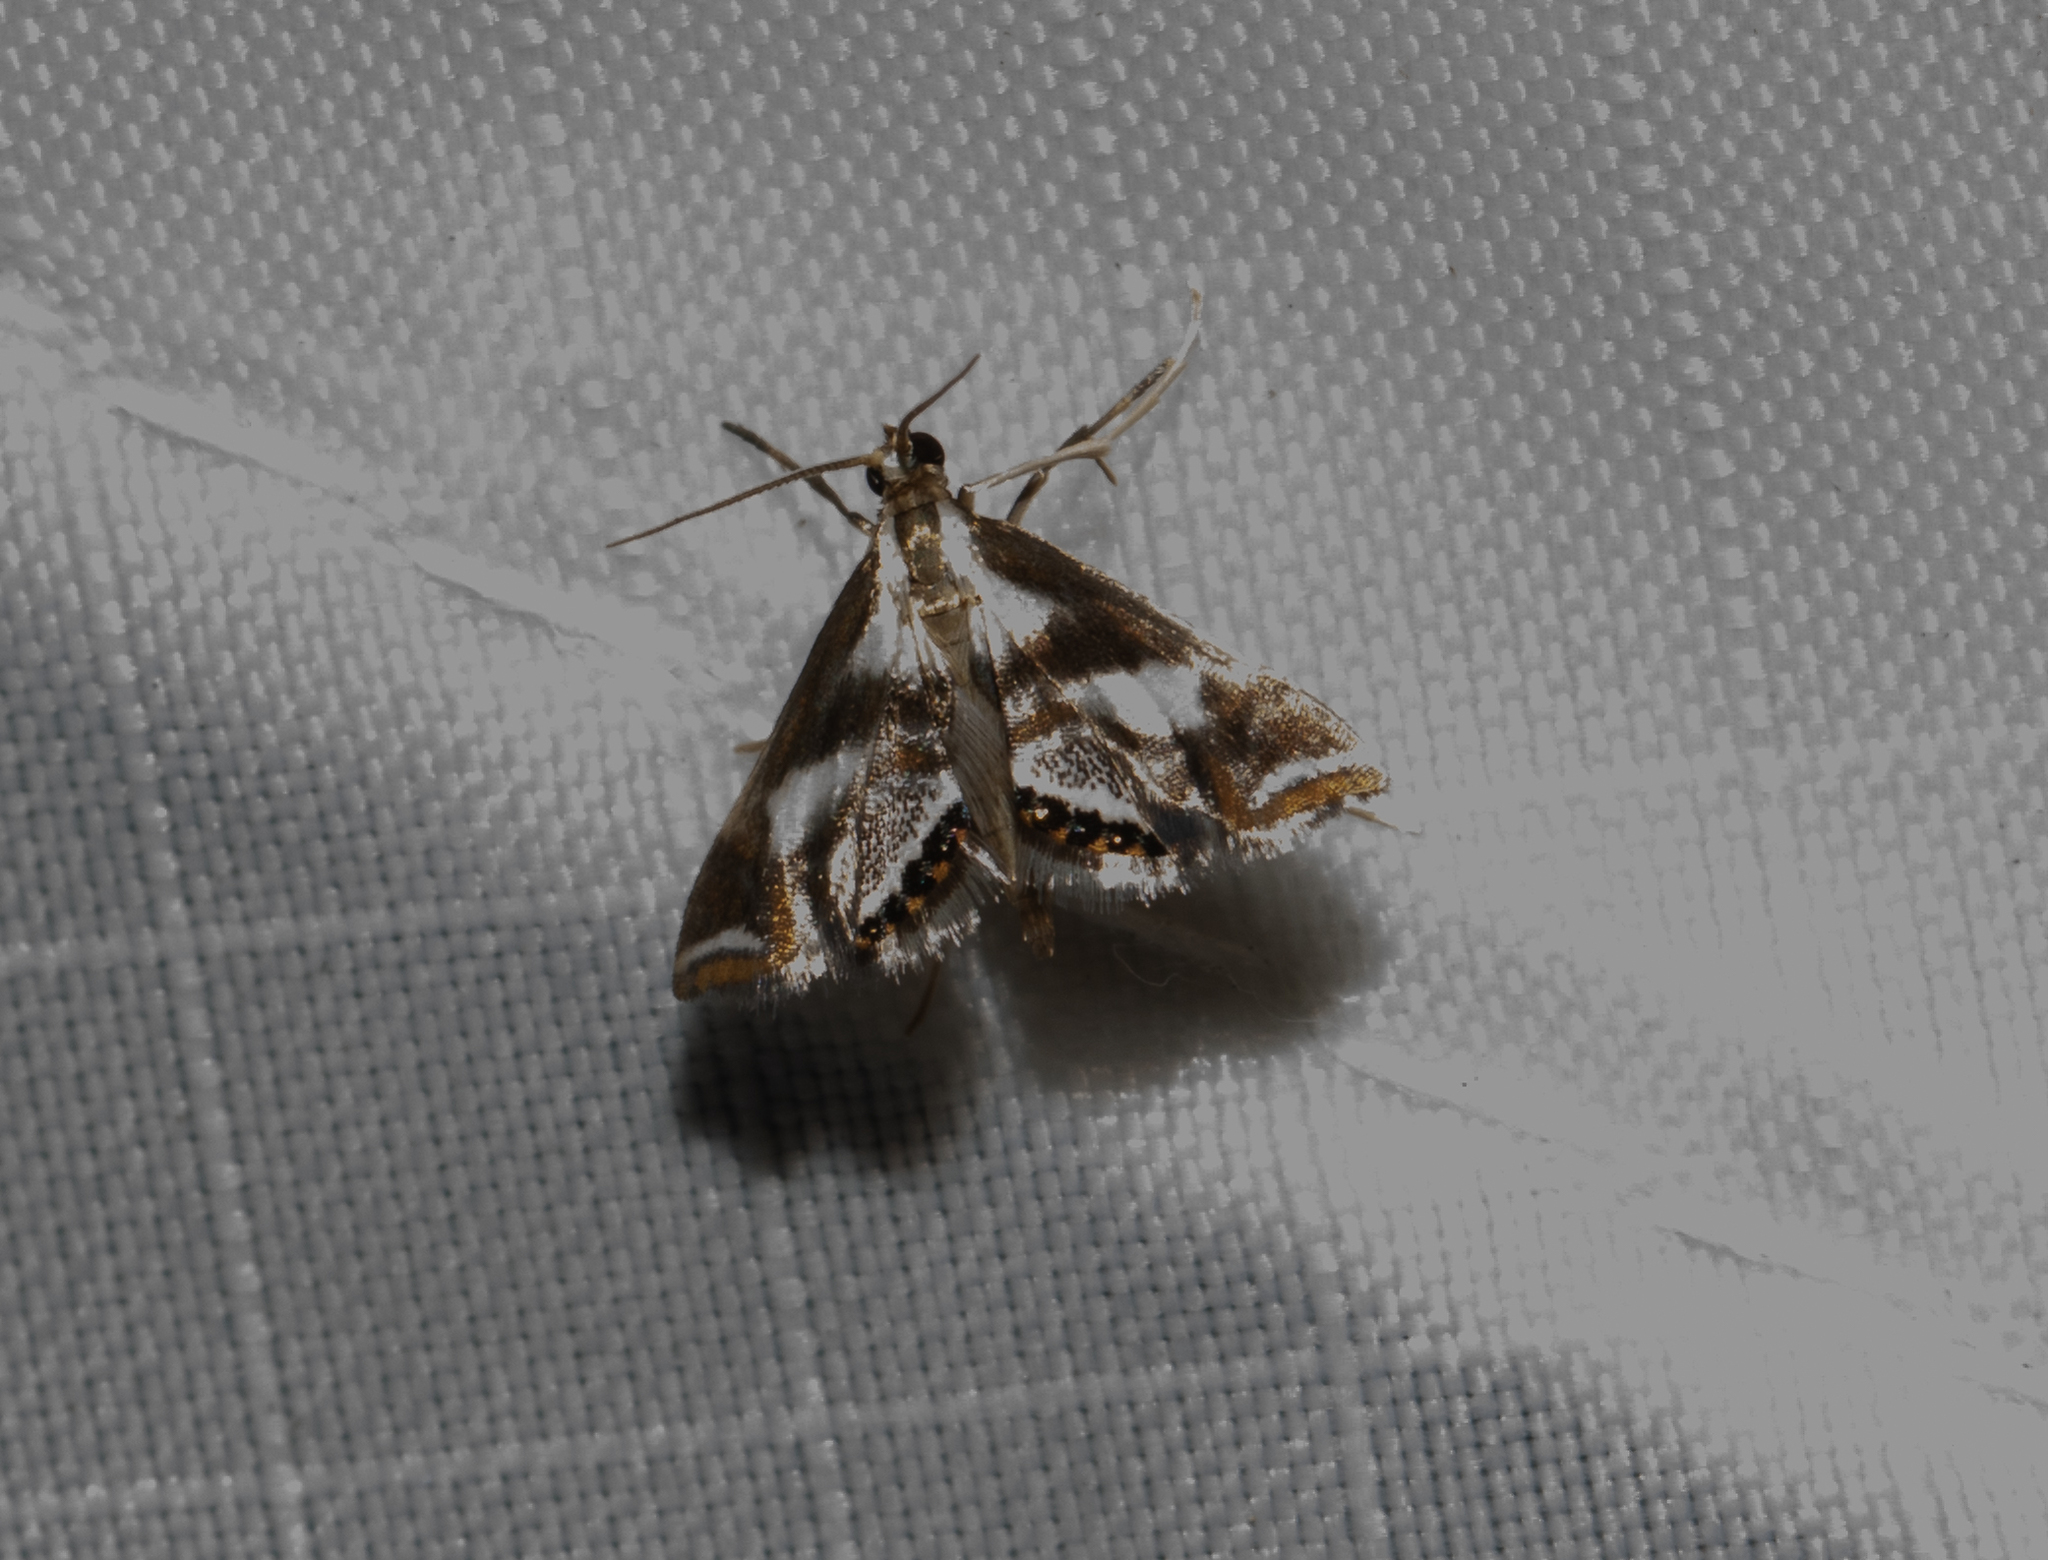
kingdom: Animalia
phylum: Arthropoda
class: Insecta
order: Lepidoptera
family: Crambidae
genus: Chrysendeton
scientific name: Chrysendeton imitabilis
